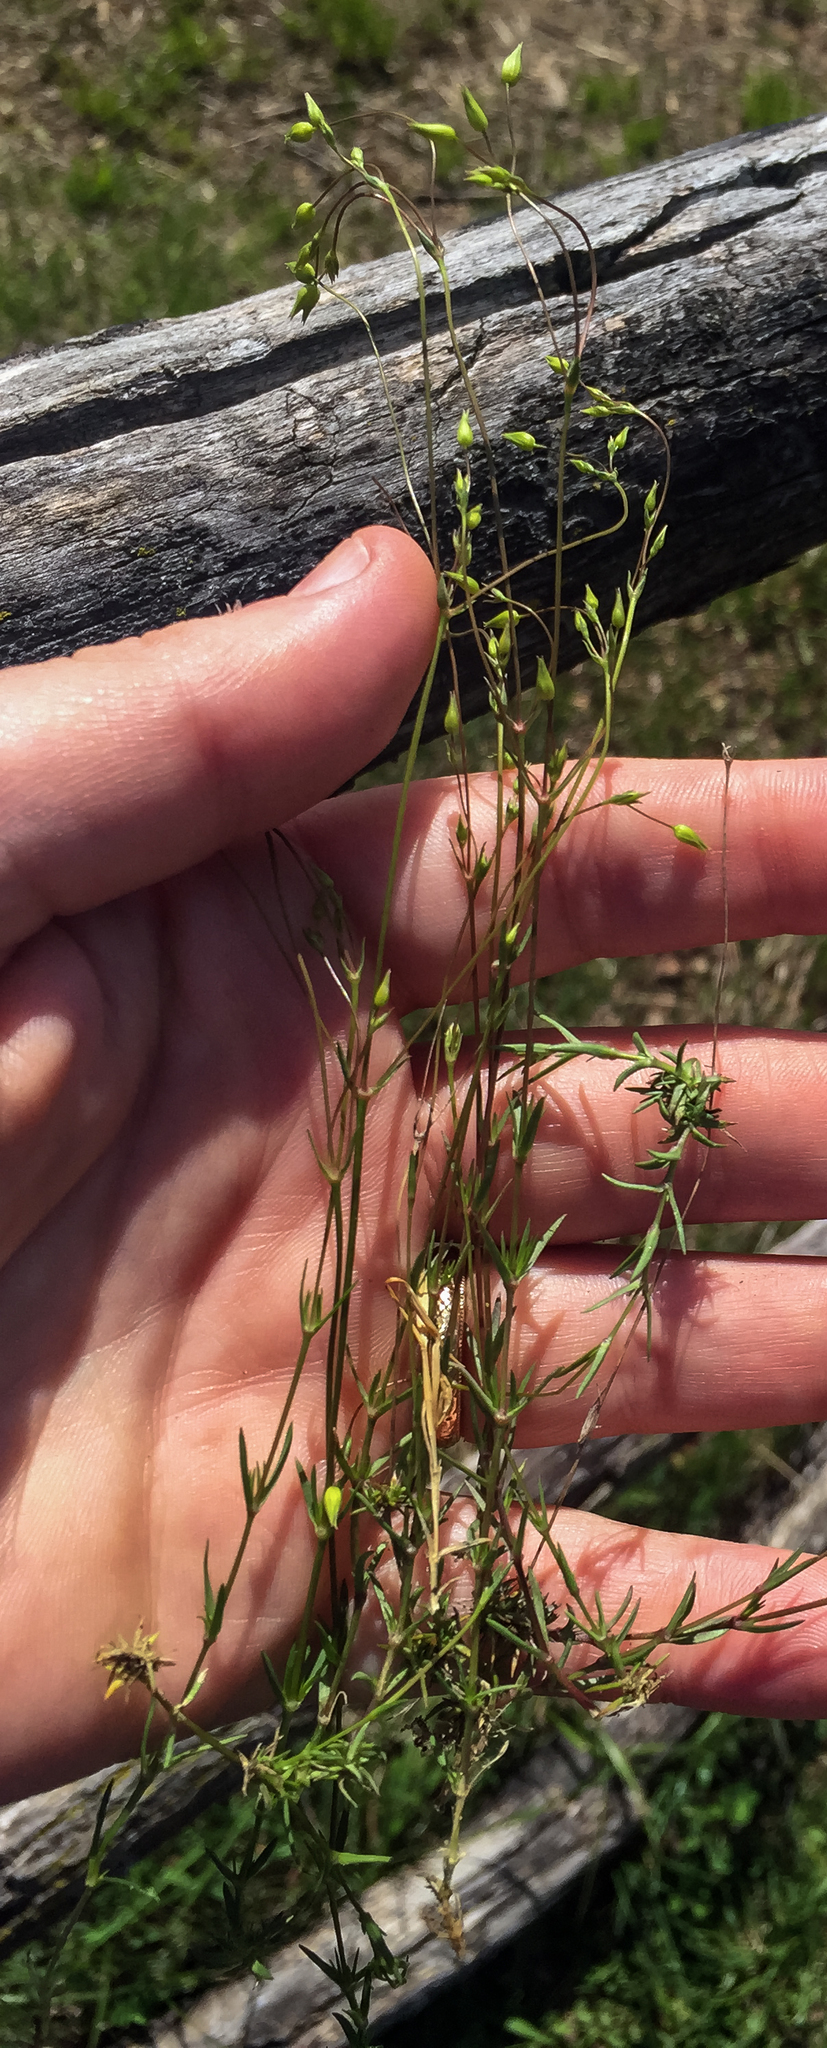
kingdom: Plantae
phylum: Tracheophyta
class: Magnoliopsida
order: Caryophyllales
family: Caryophyllaceae
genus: Sabulina
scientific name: Sabulina michauxii
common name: Michaux's stitchwort
